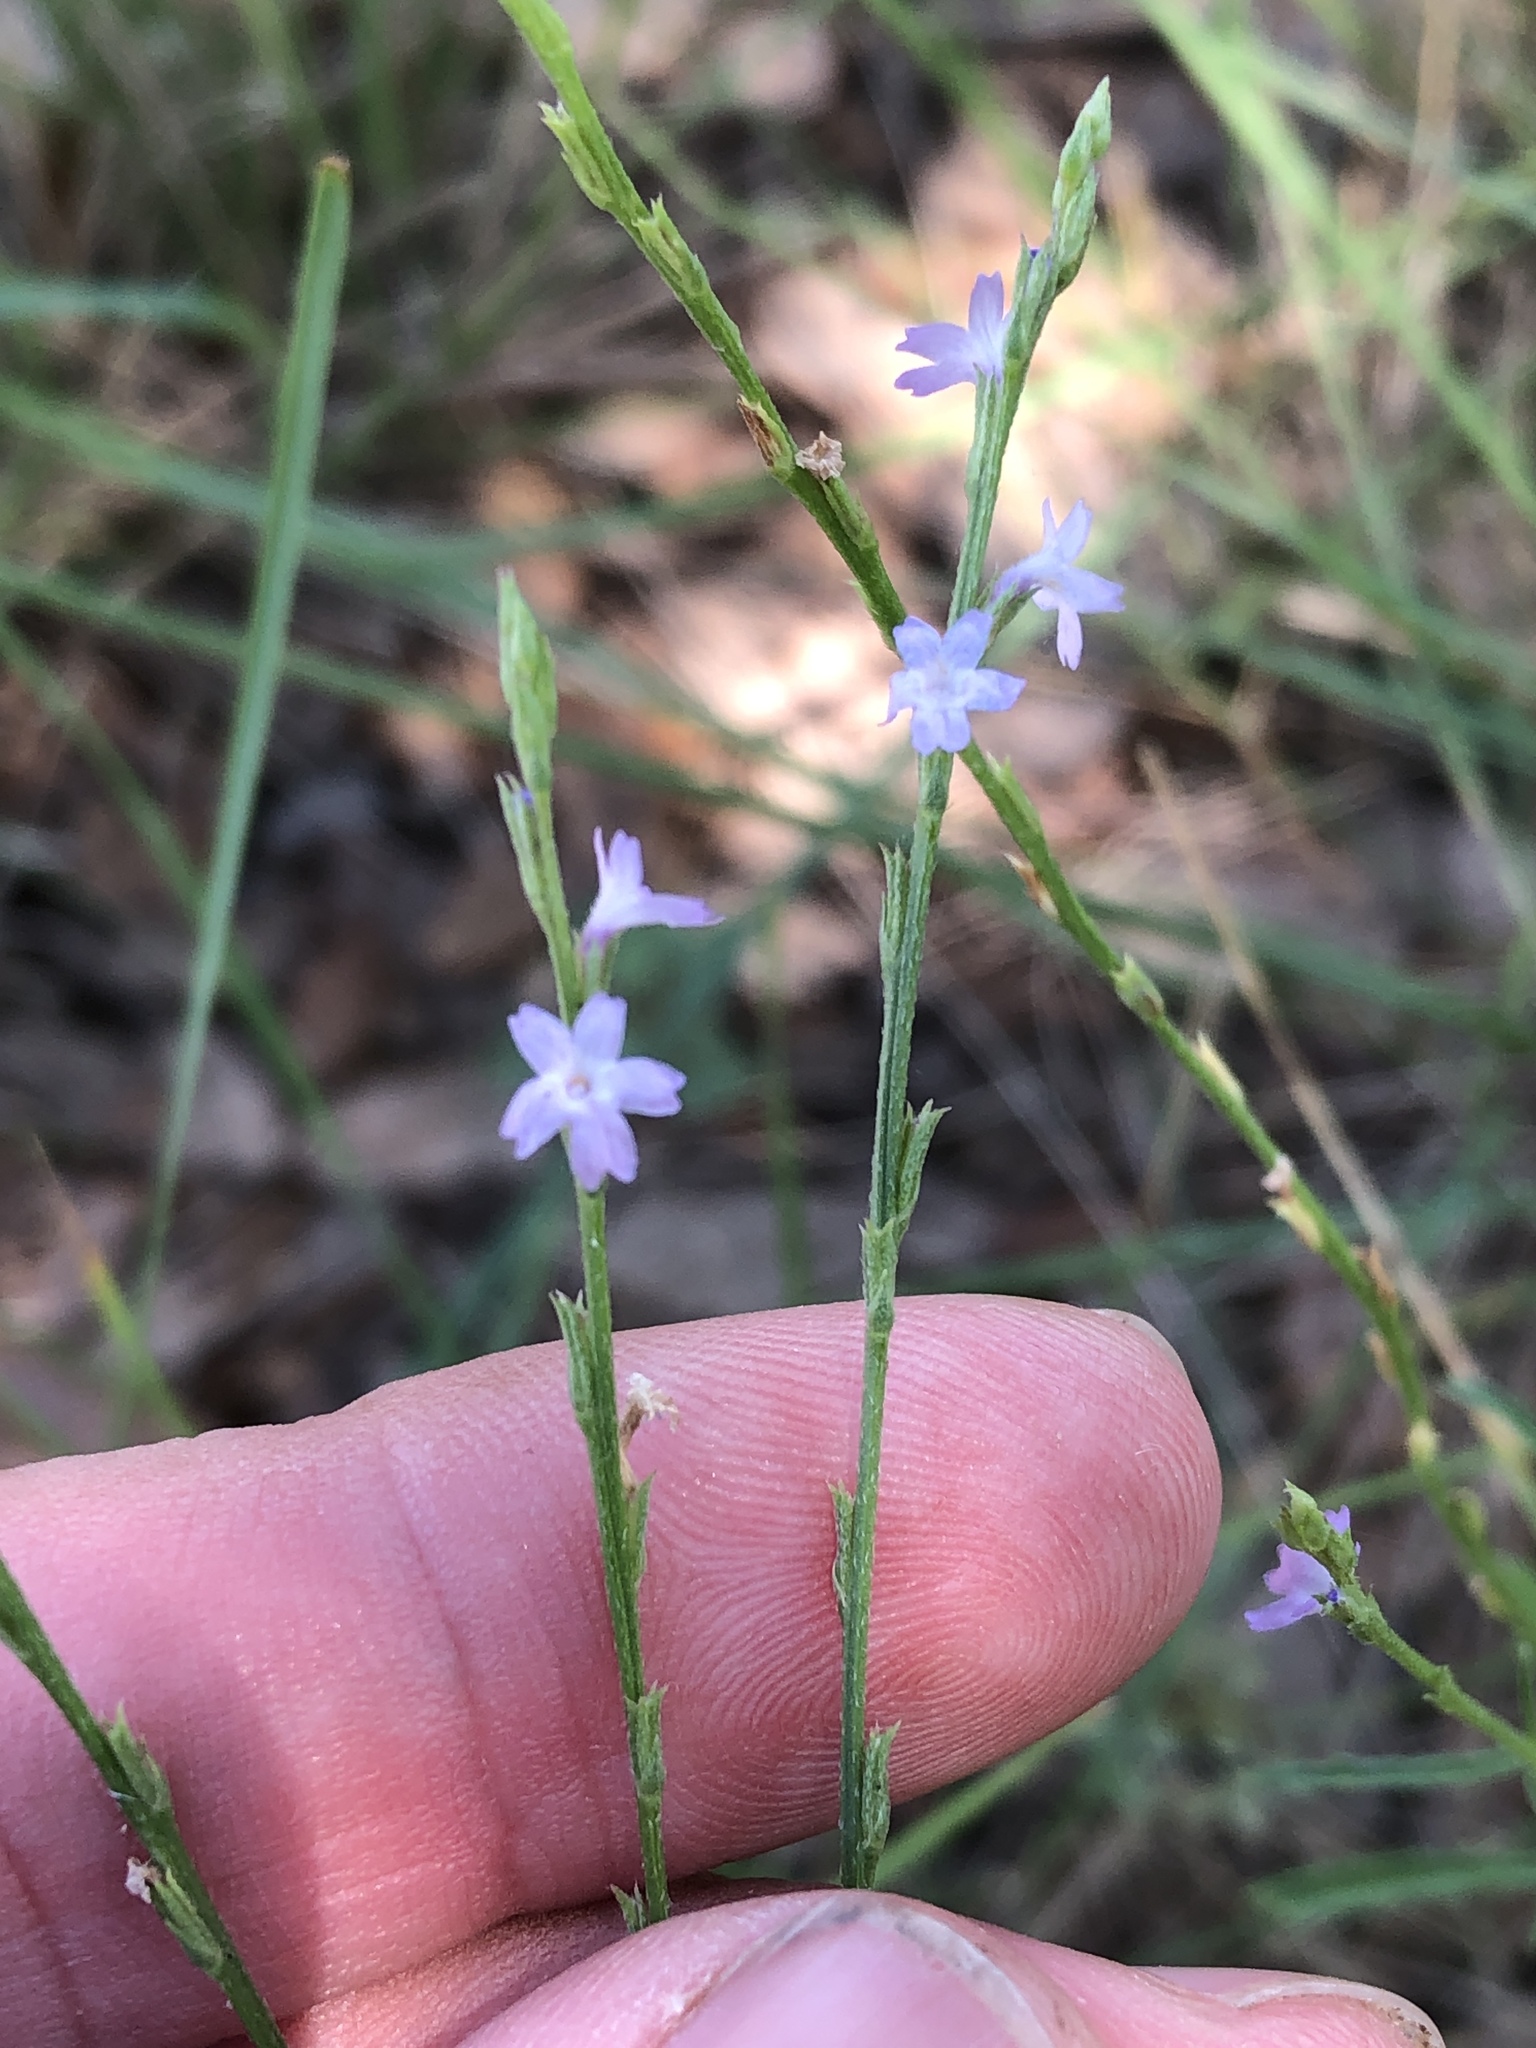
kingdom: Plantae
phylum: Tracheophyta
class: Magnoliopsida
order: Lamiales
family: Verbenaceae
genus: Verbena
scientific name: Verbena halei
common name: Texas vervain
